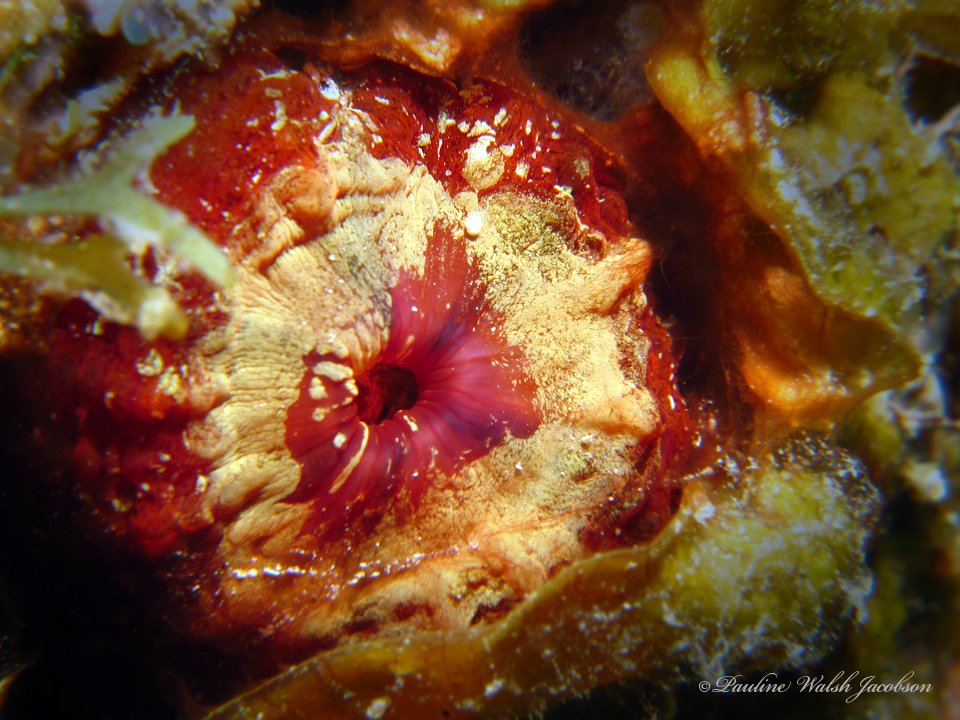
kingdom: Animalia
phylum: Cnidaria
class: Anthozoa
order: Scleractinia
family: Faviidae
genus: Scolymia
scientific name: Scolymia cubensis
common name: Artichoke coral
